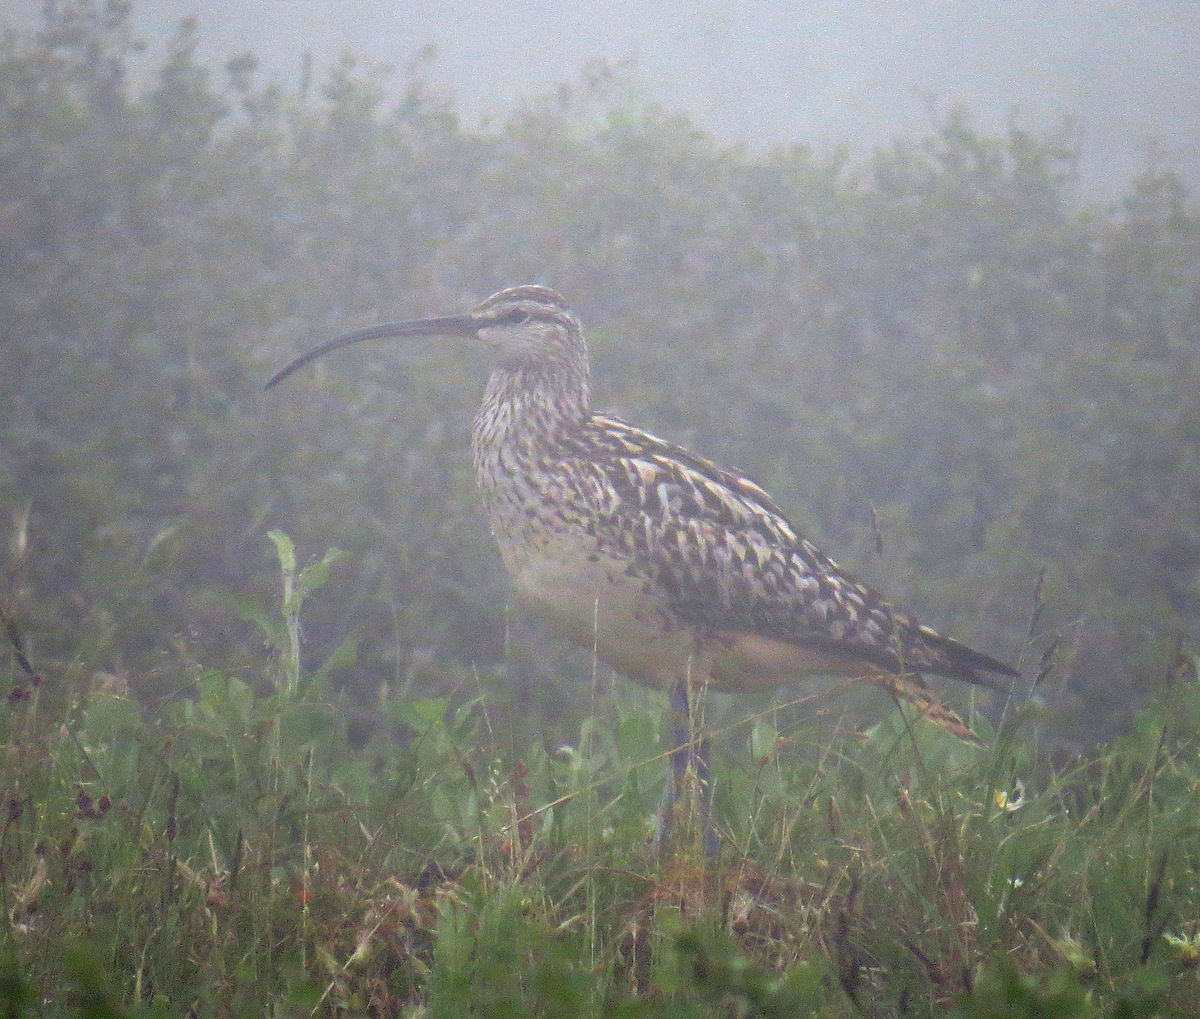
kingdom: Animalia
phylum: Chordata
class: Aves
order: Charadriiformes
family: Scolopacidae
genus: Numenius
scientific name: Numenius tahitiensis
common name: Bristle-thighed curlew
